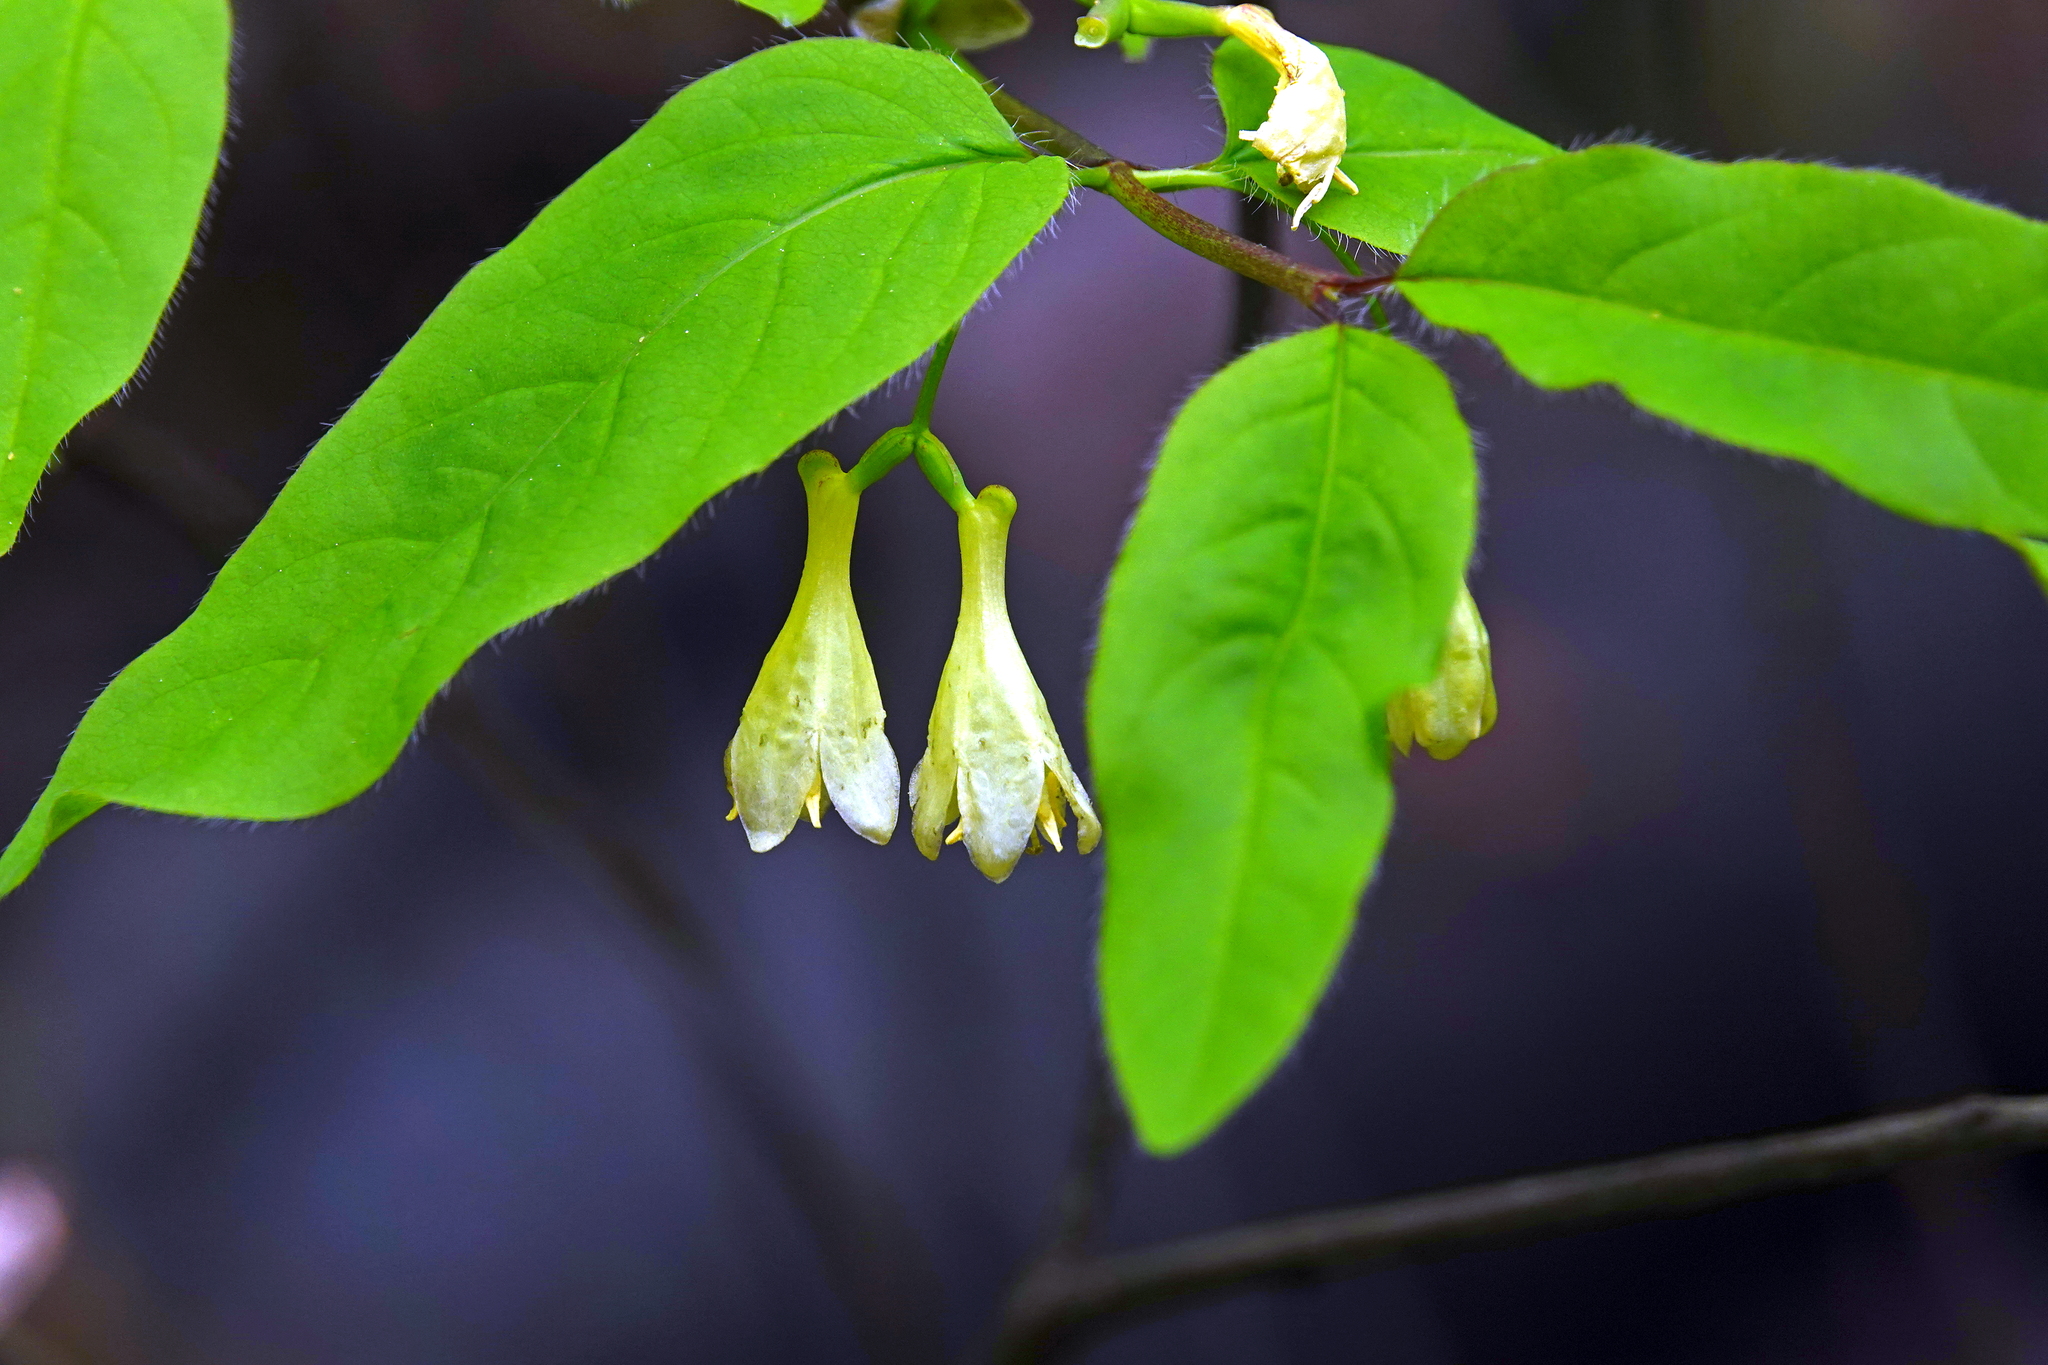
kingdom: Plantae
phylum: Tracheophyta
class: Magnoliopsida
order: Dipsacales
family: Caprifoliaceae
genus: Lonicera
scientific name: Lonicera canadensis
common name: American fly-honeysuckle
